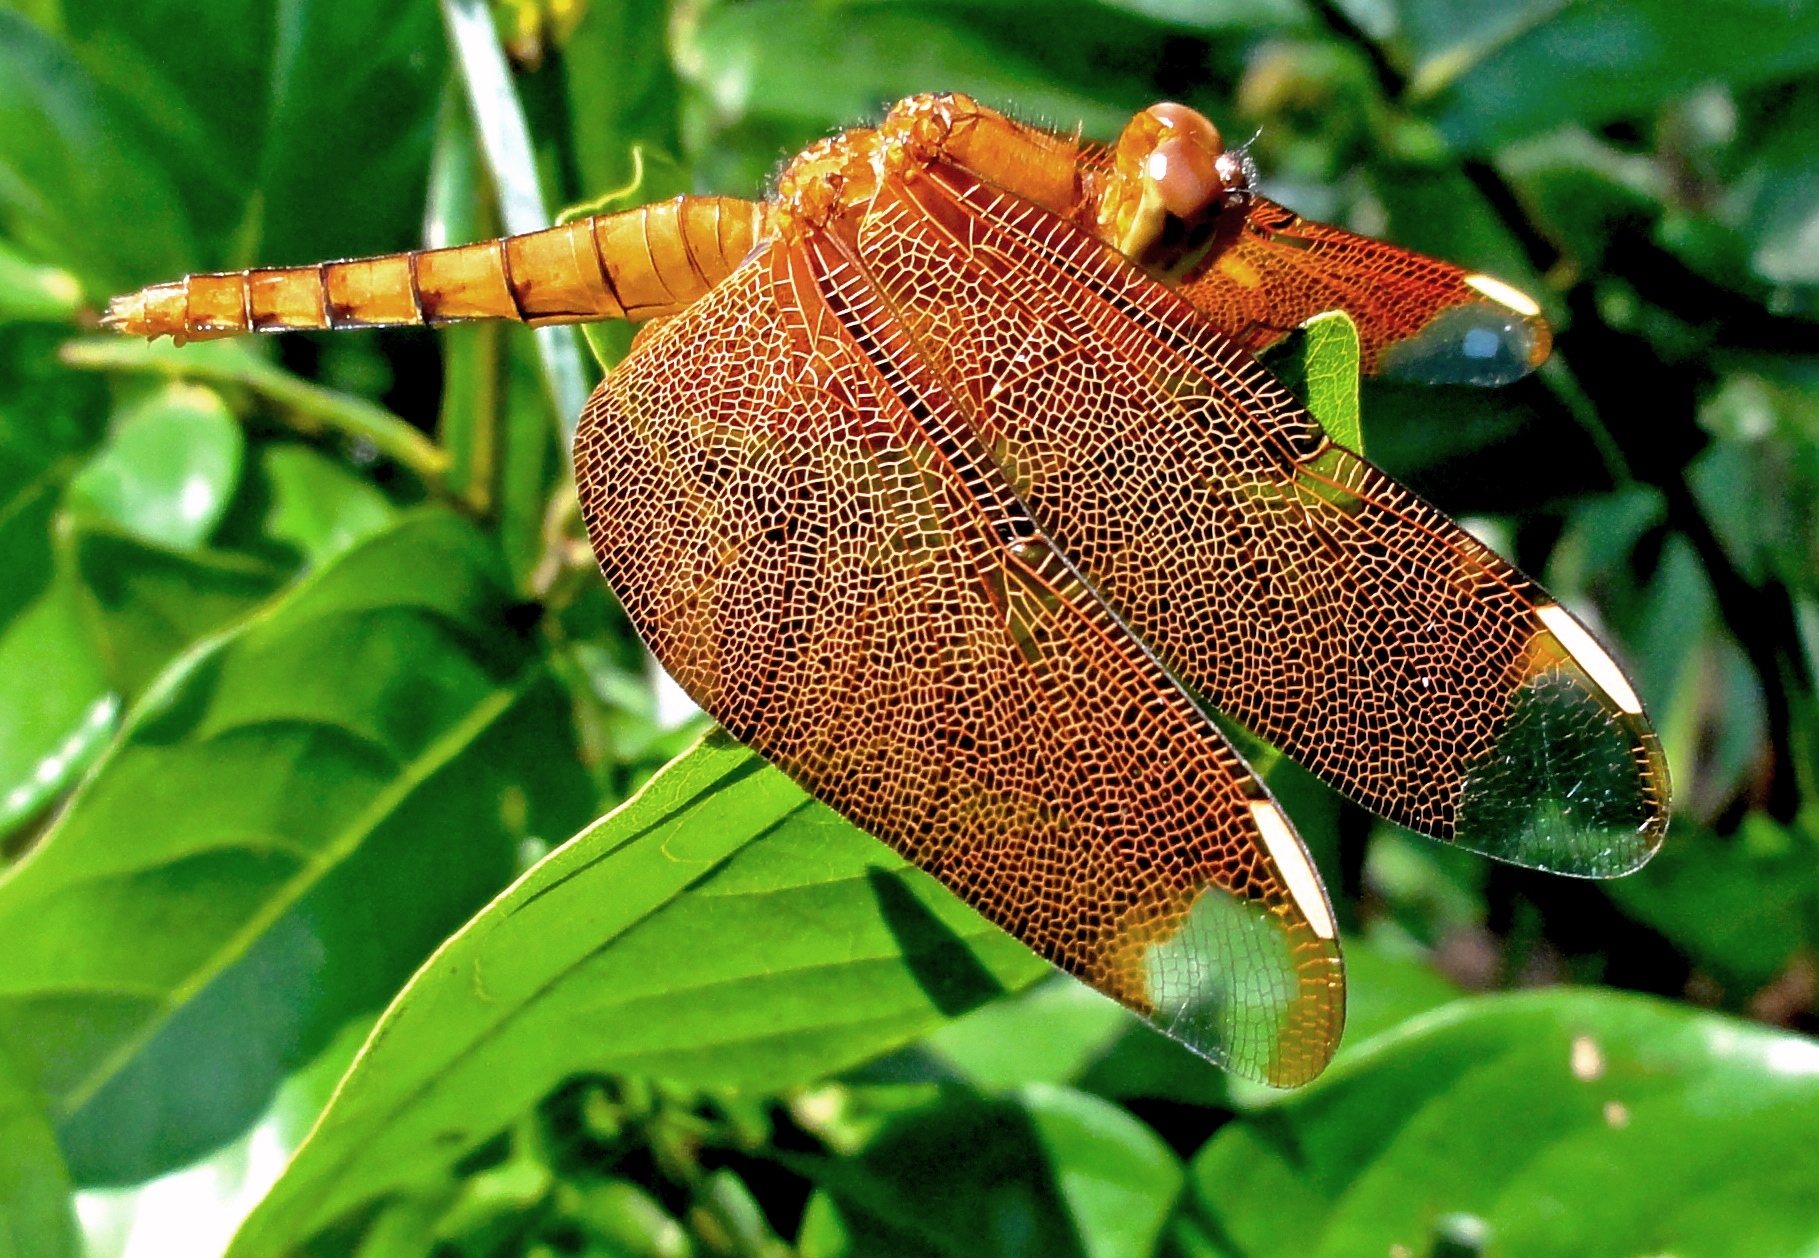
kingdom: Animalia
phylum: Arthropoda
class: Insecta
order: Odonata
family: Libellulidae
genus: Neurothemis
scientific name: Neurothemis fulvia
